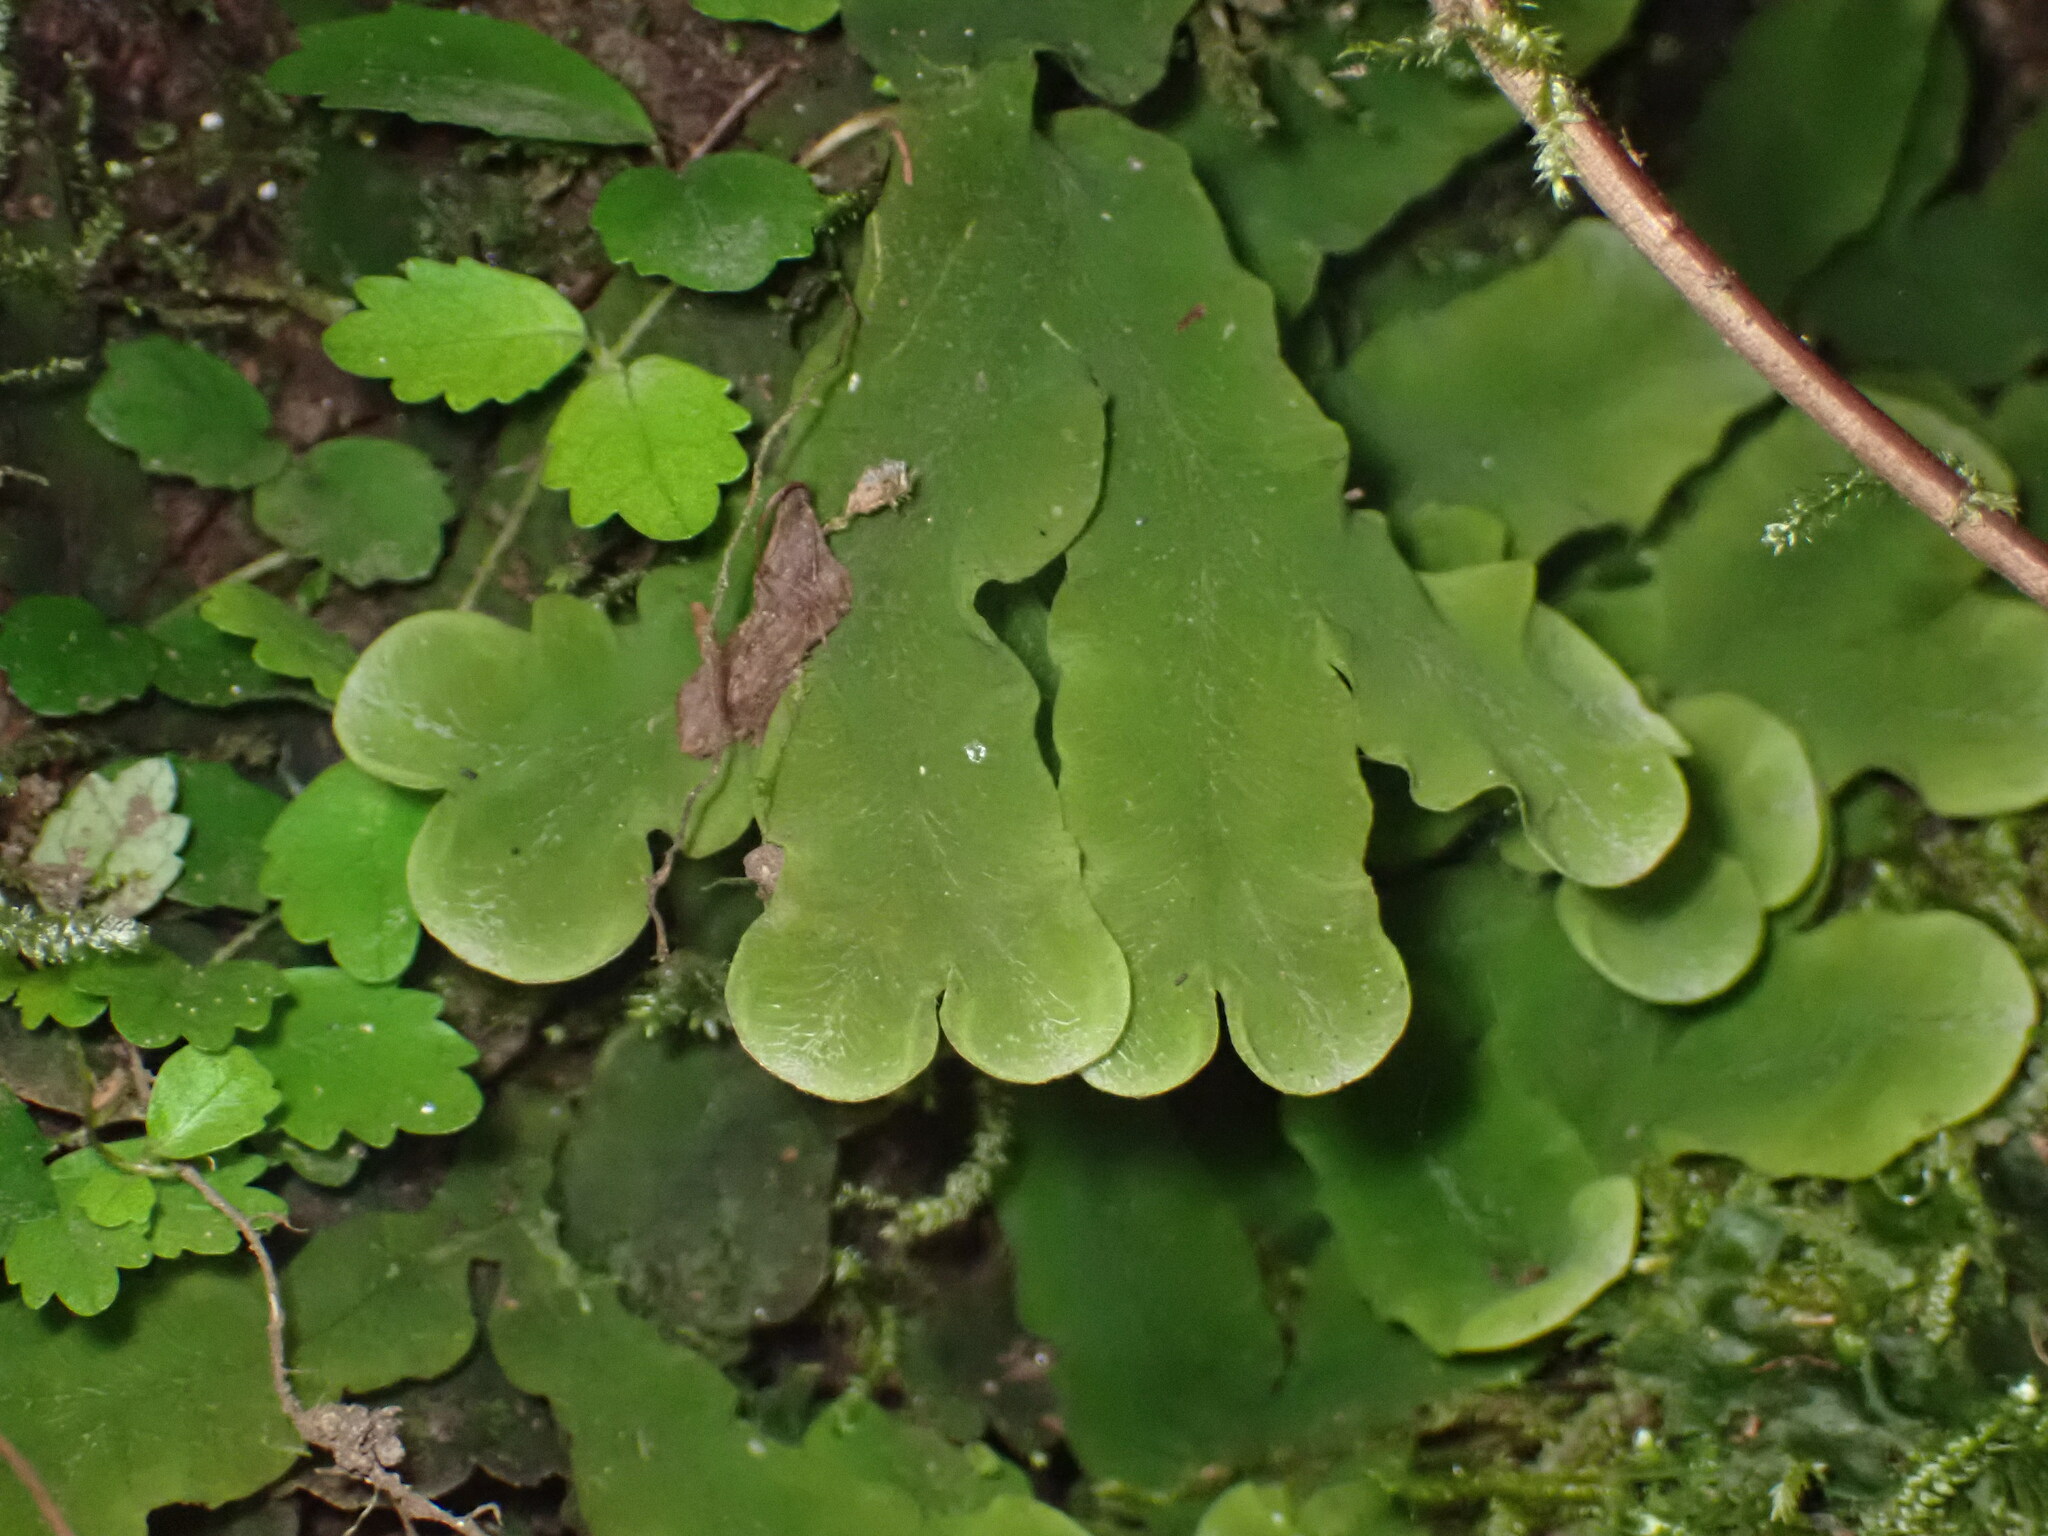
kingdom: Plantae
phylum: Marchantiophyta
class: Marchantiopsida
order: Marchantiales
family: Dumortieraceae
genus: Dumortiera
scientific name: Dumortiera hirsuta
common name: Dumortier's liverwort
